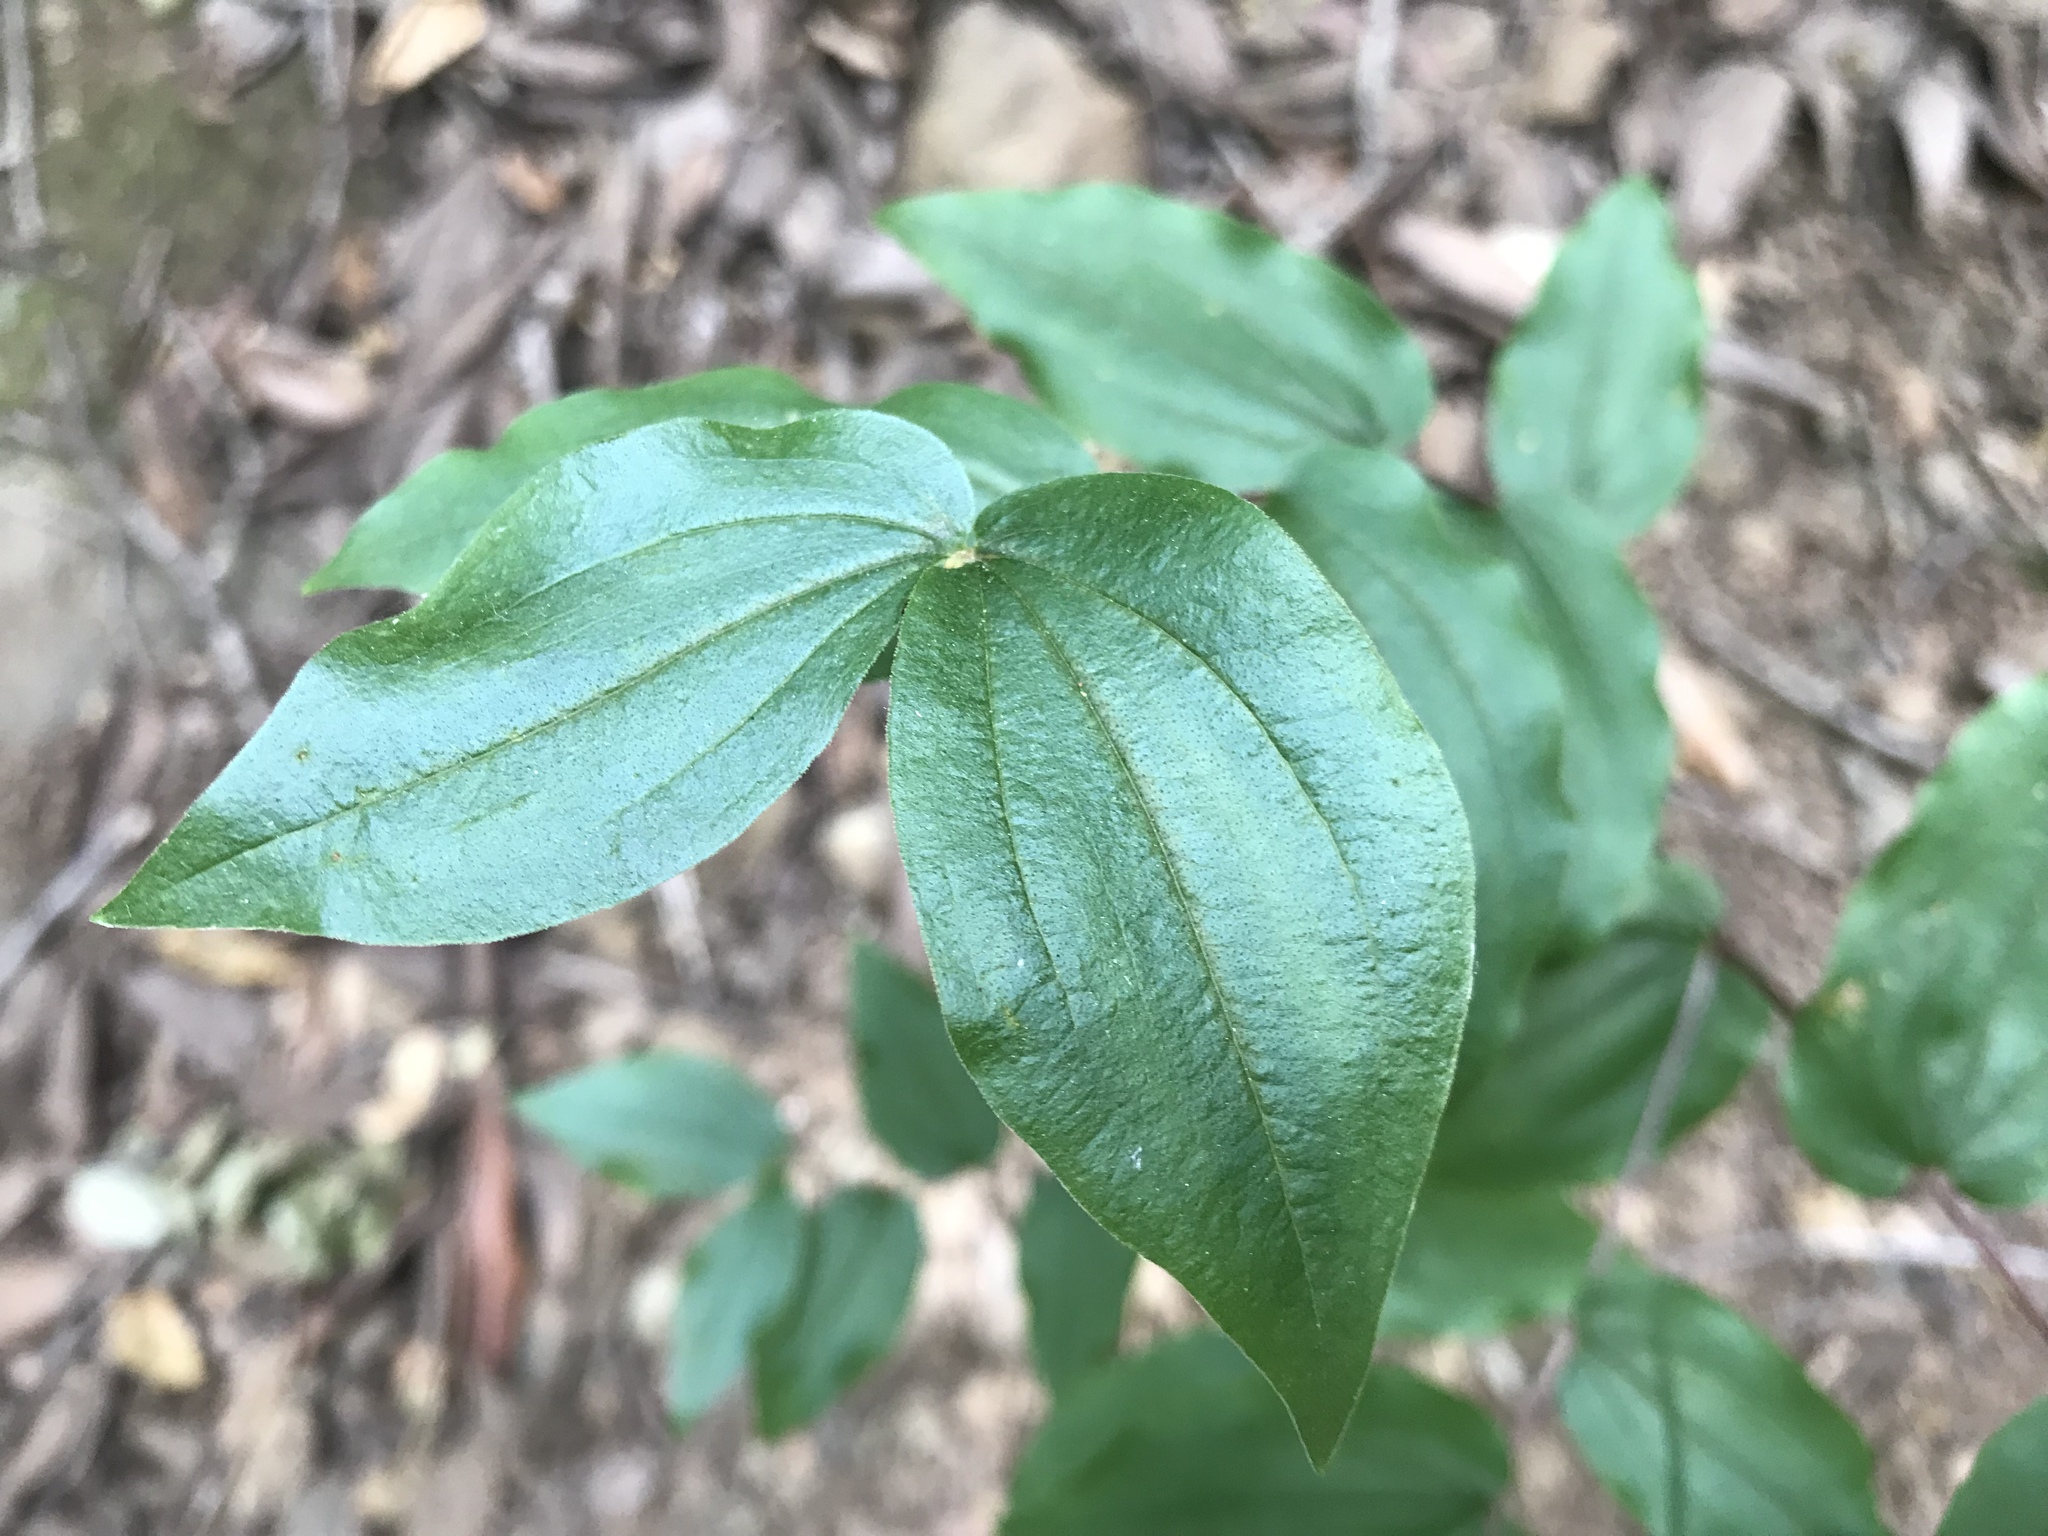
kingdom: Plantae
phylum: Tracheophyta
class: Liliopsida
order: Liliales
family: Liliaceae
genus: Prosartes
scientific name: Prosartes hookeri
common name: Fairy-bells
